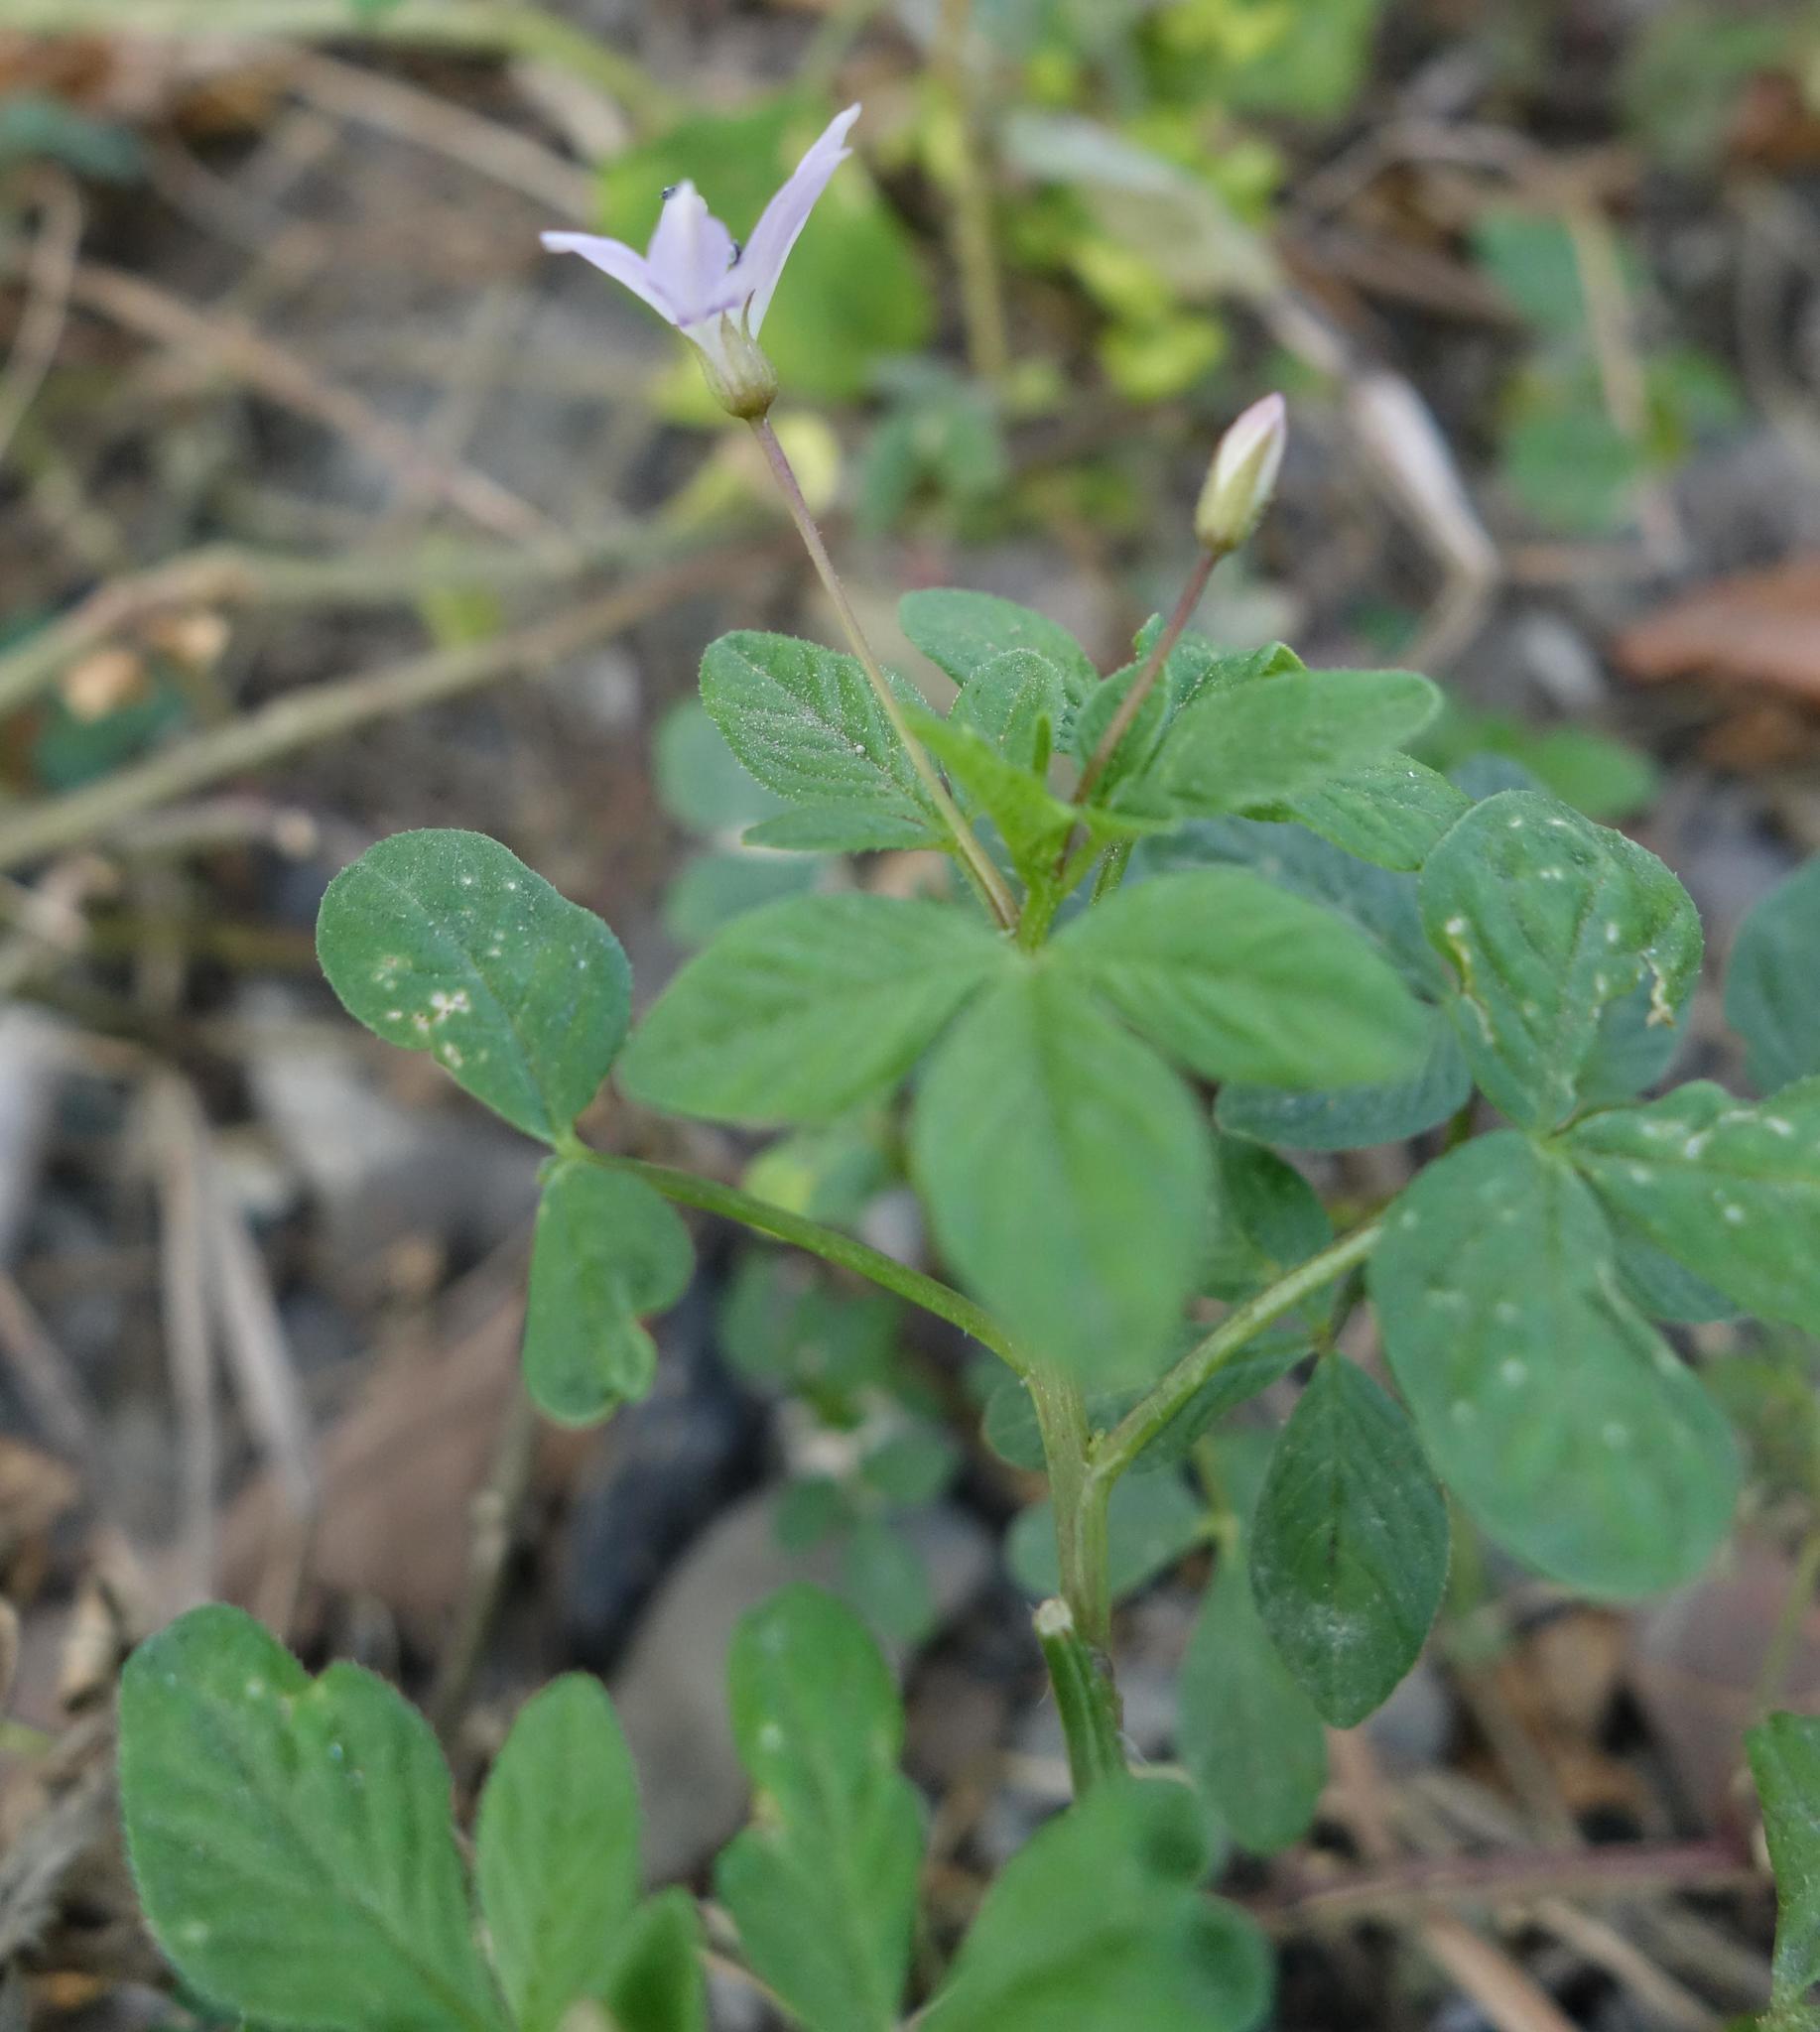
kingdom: Plantae
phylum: Tracheophyta
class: Magnoliopsida
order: Brassicales
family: Cleomaceae
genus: Sieruela
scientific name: Sieruela rutidosperma
